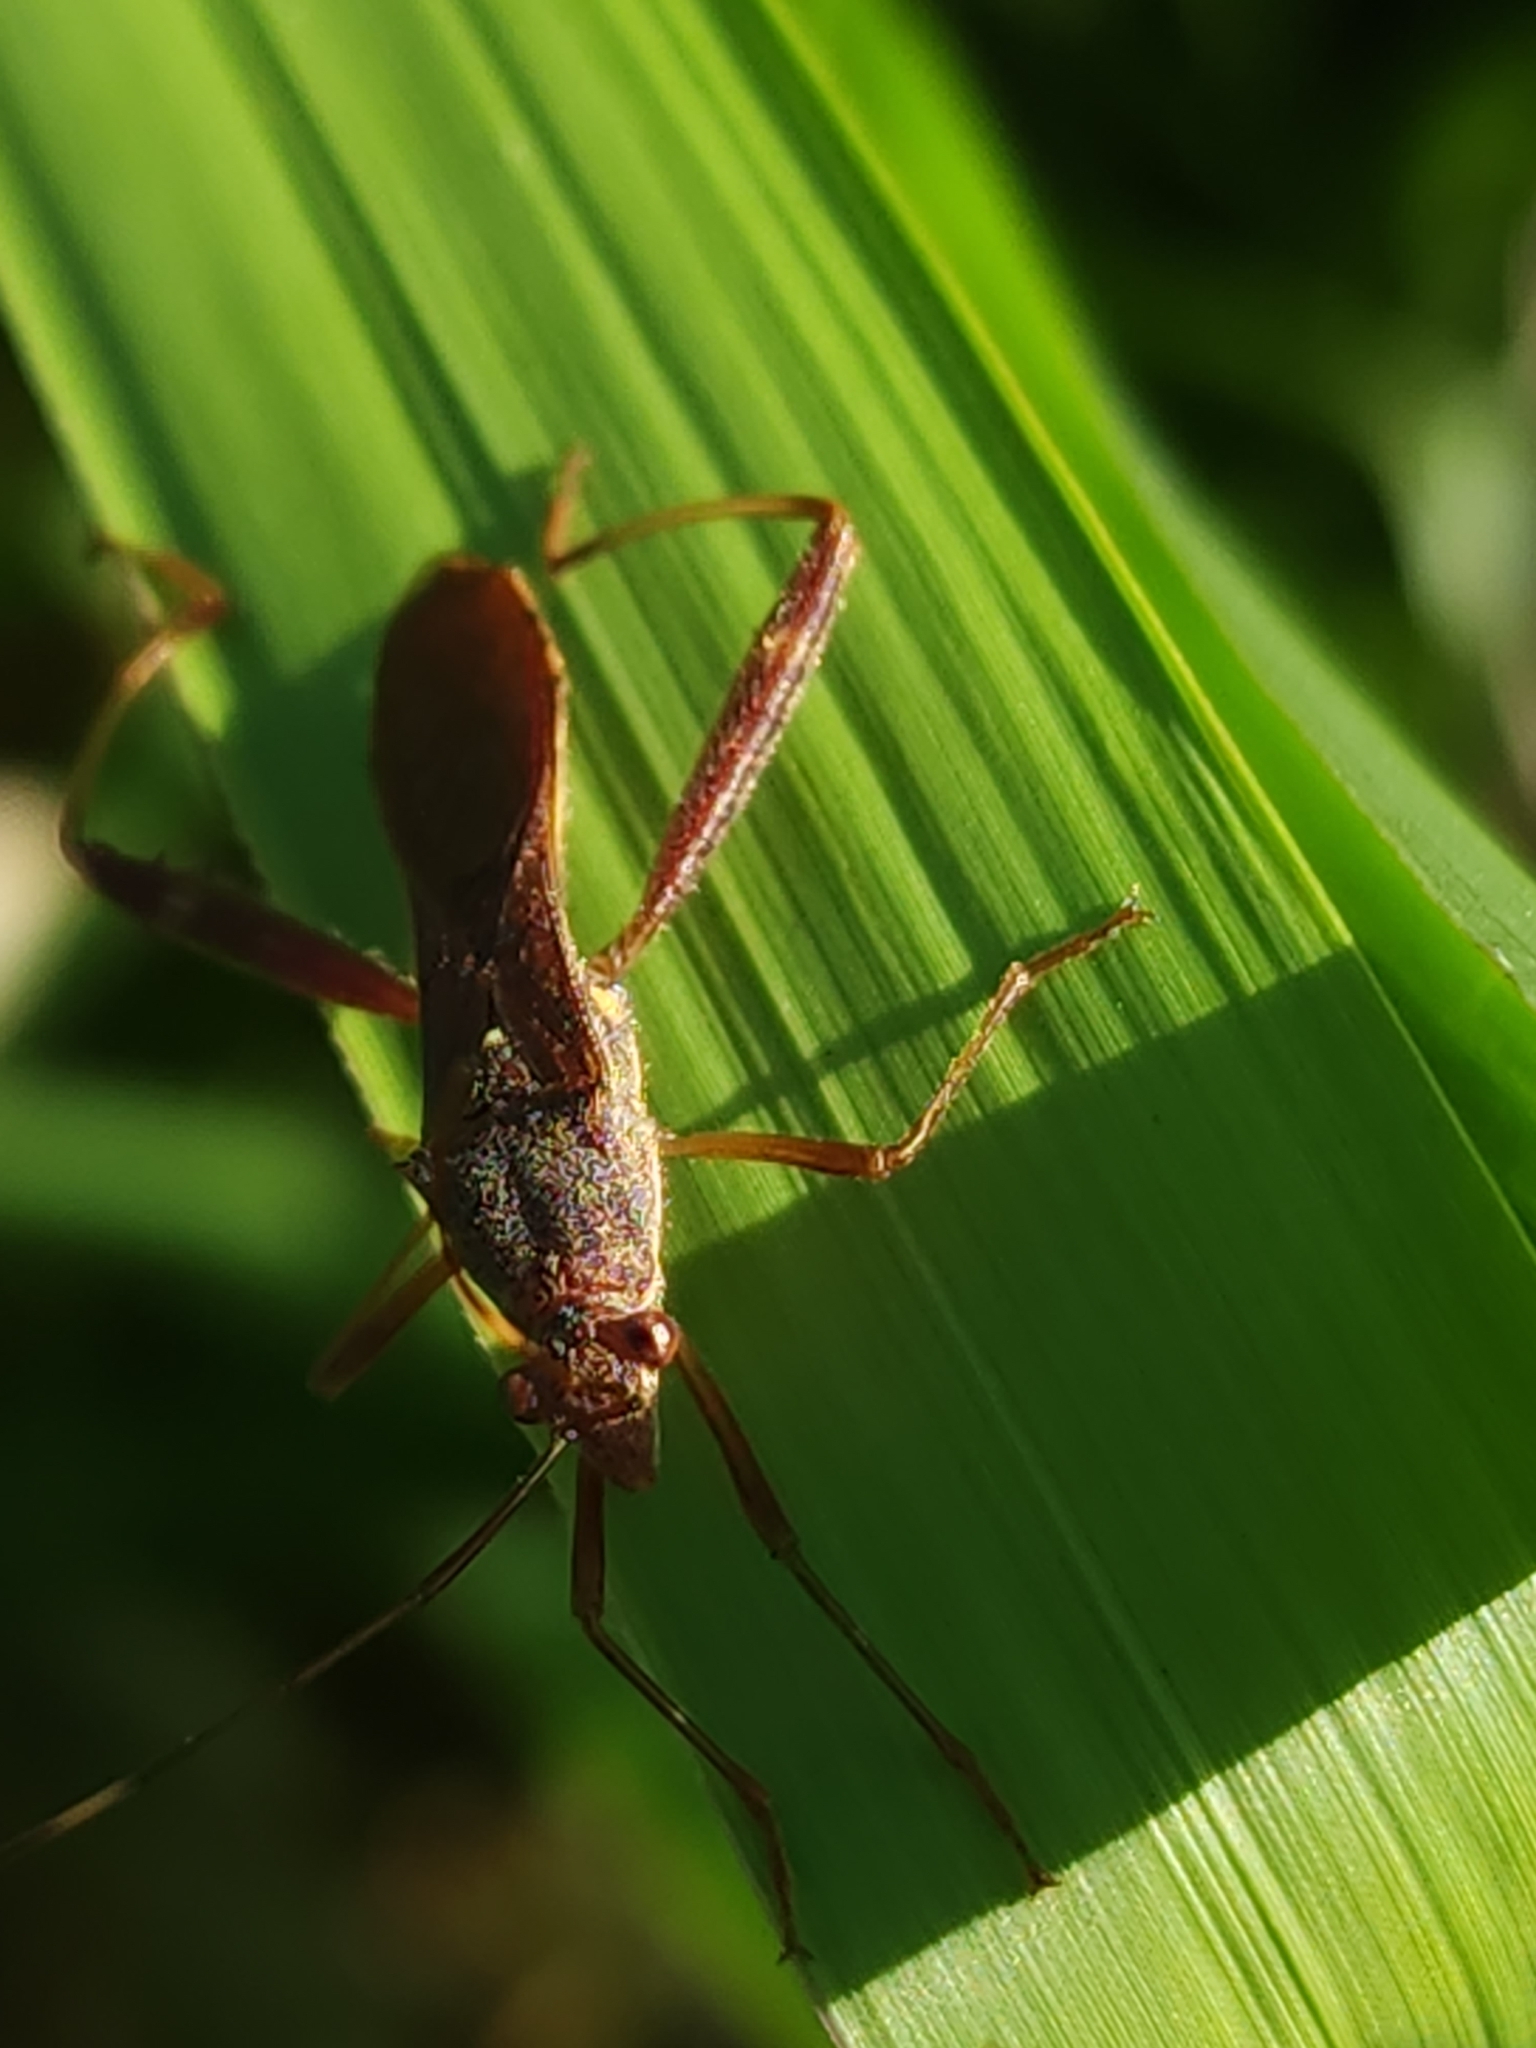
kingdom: Animalia
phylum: Arthropoda
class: Insecta
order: Hemiptera
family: Alydidae
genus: Riptortus
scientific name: Riptortus serripes
